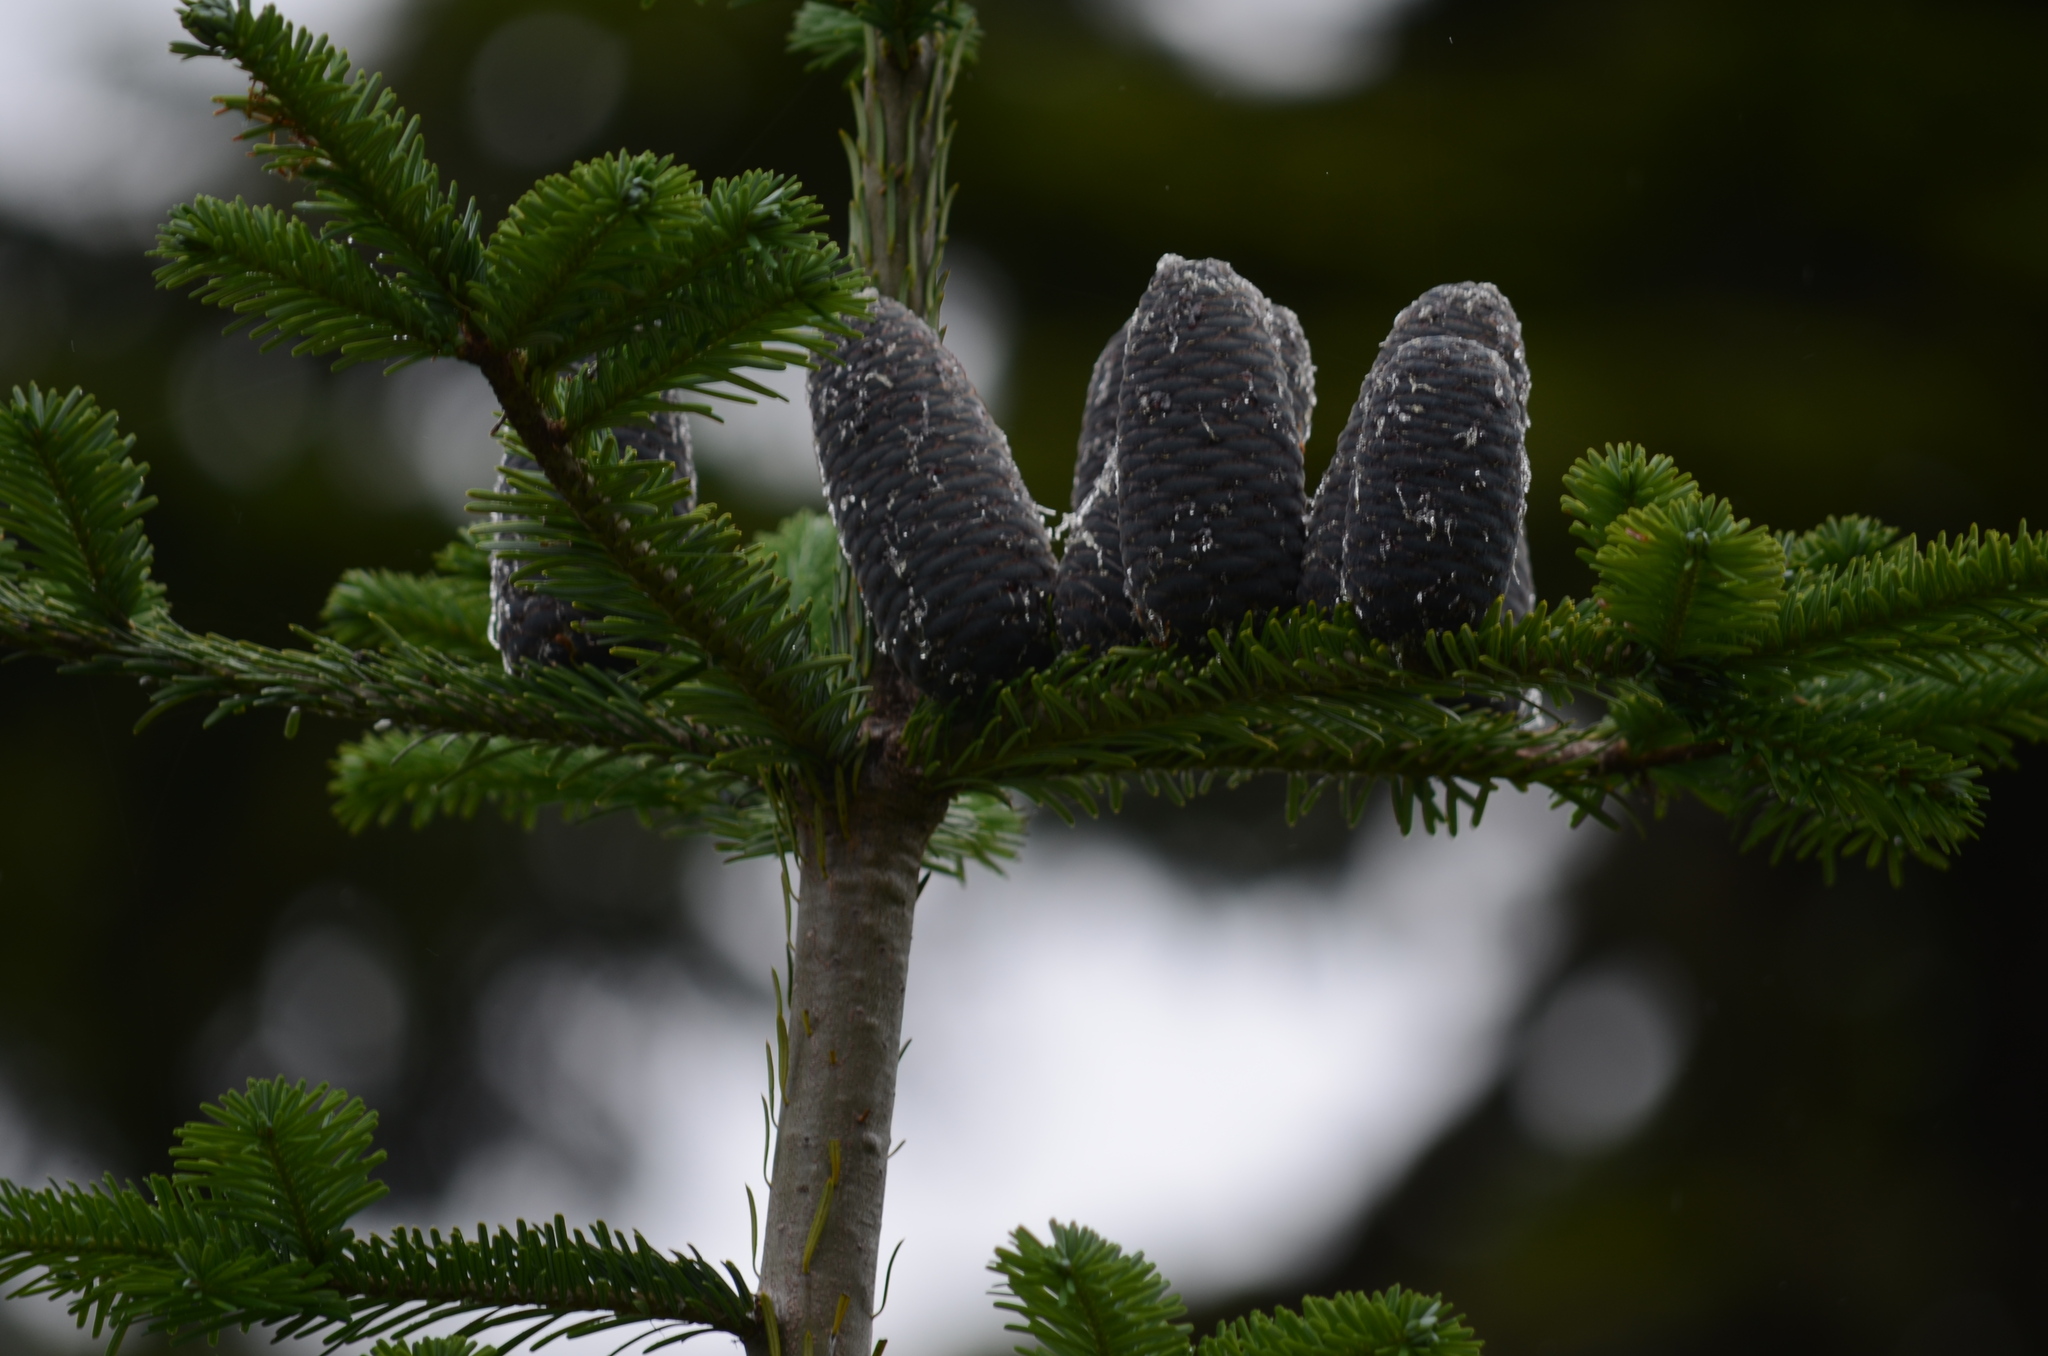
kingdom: Plantae
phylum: Tracheophyta
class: Pinopsida
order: Pinales
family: Pinaceae
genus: Abies
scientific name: Abies amabilis
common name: Pacific silver fir
